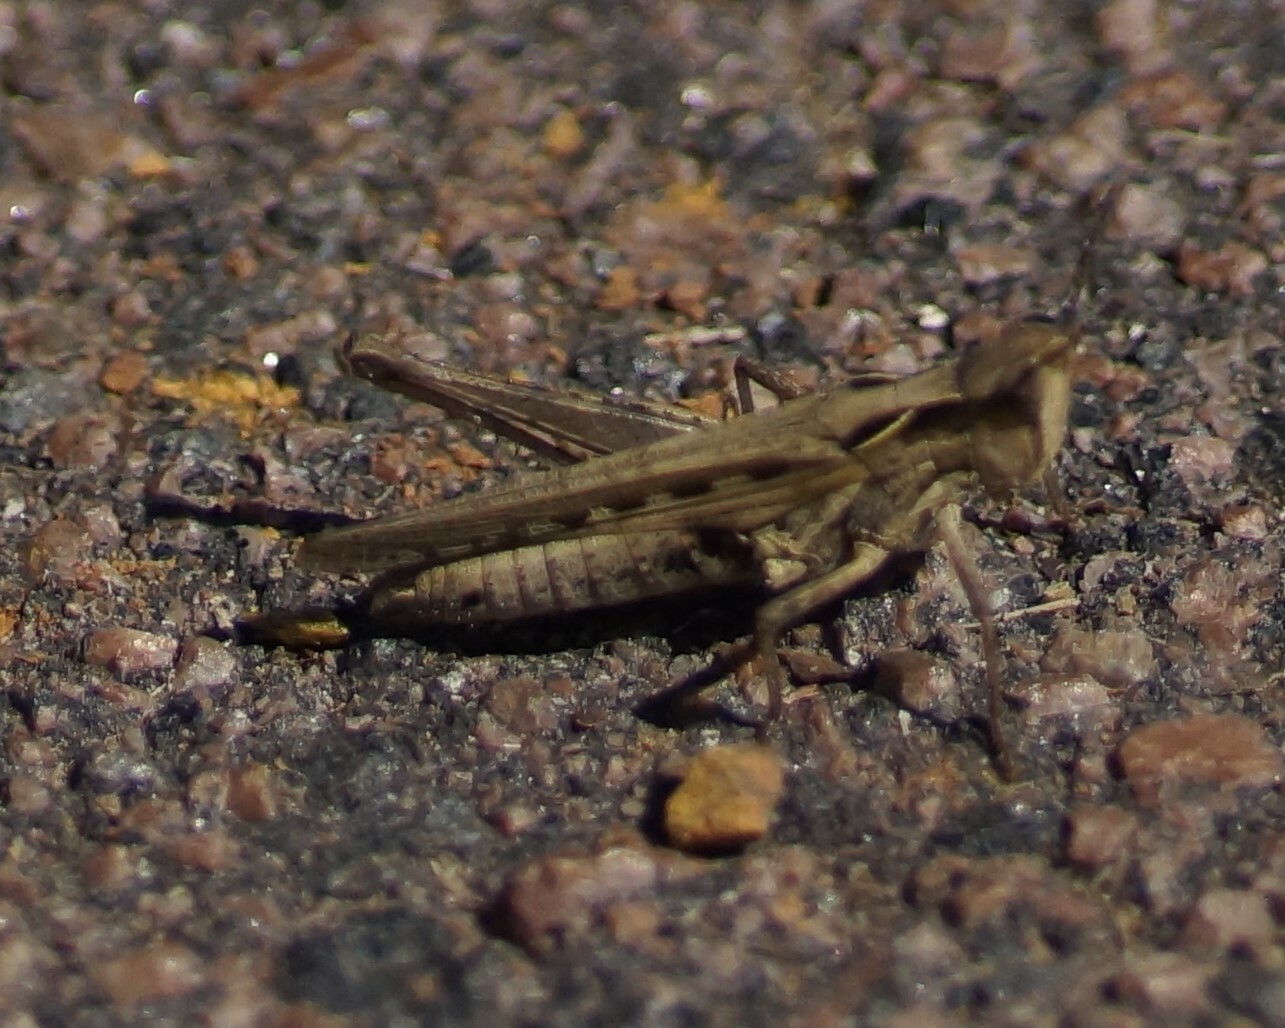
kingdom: Animalia
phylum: Arthropoda
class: Insecta
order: Orthoptera
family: Acrididae
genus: Froggattina
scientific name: Froggattina australis
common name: Froggatt's buzzer
